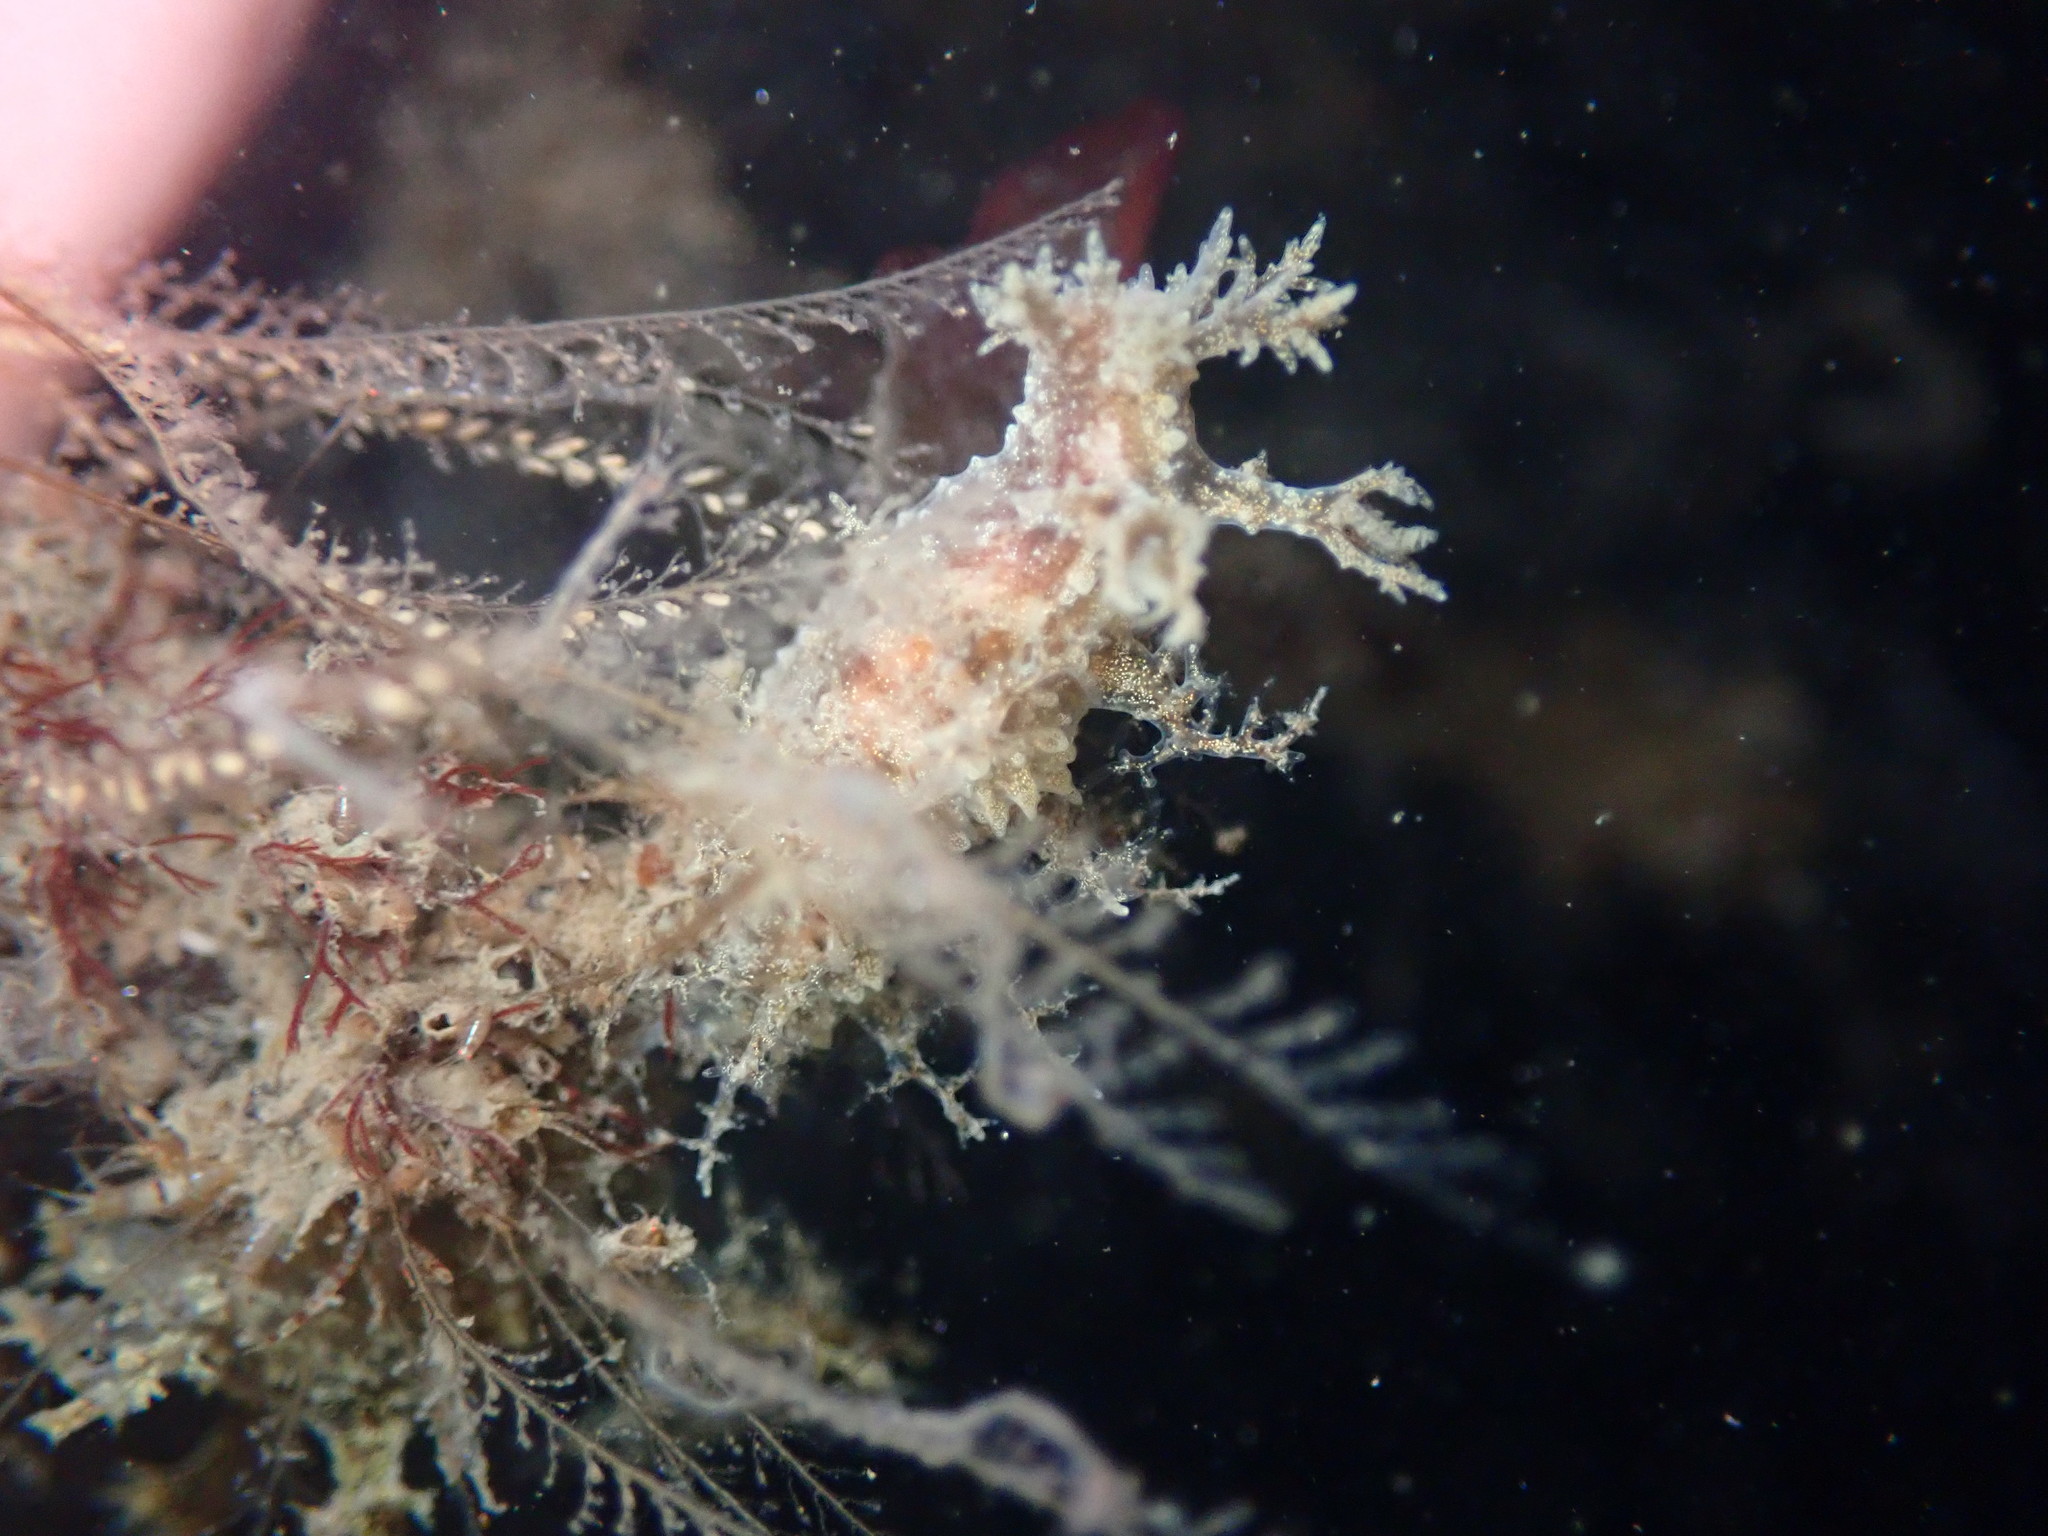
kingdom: Animalia
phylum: Mollusca
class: Gastropoda
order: Nudibranchia
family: Dendronotidae
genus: Dendronotus
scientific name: Dendronotus venustus
